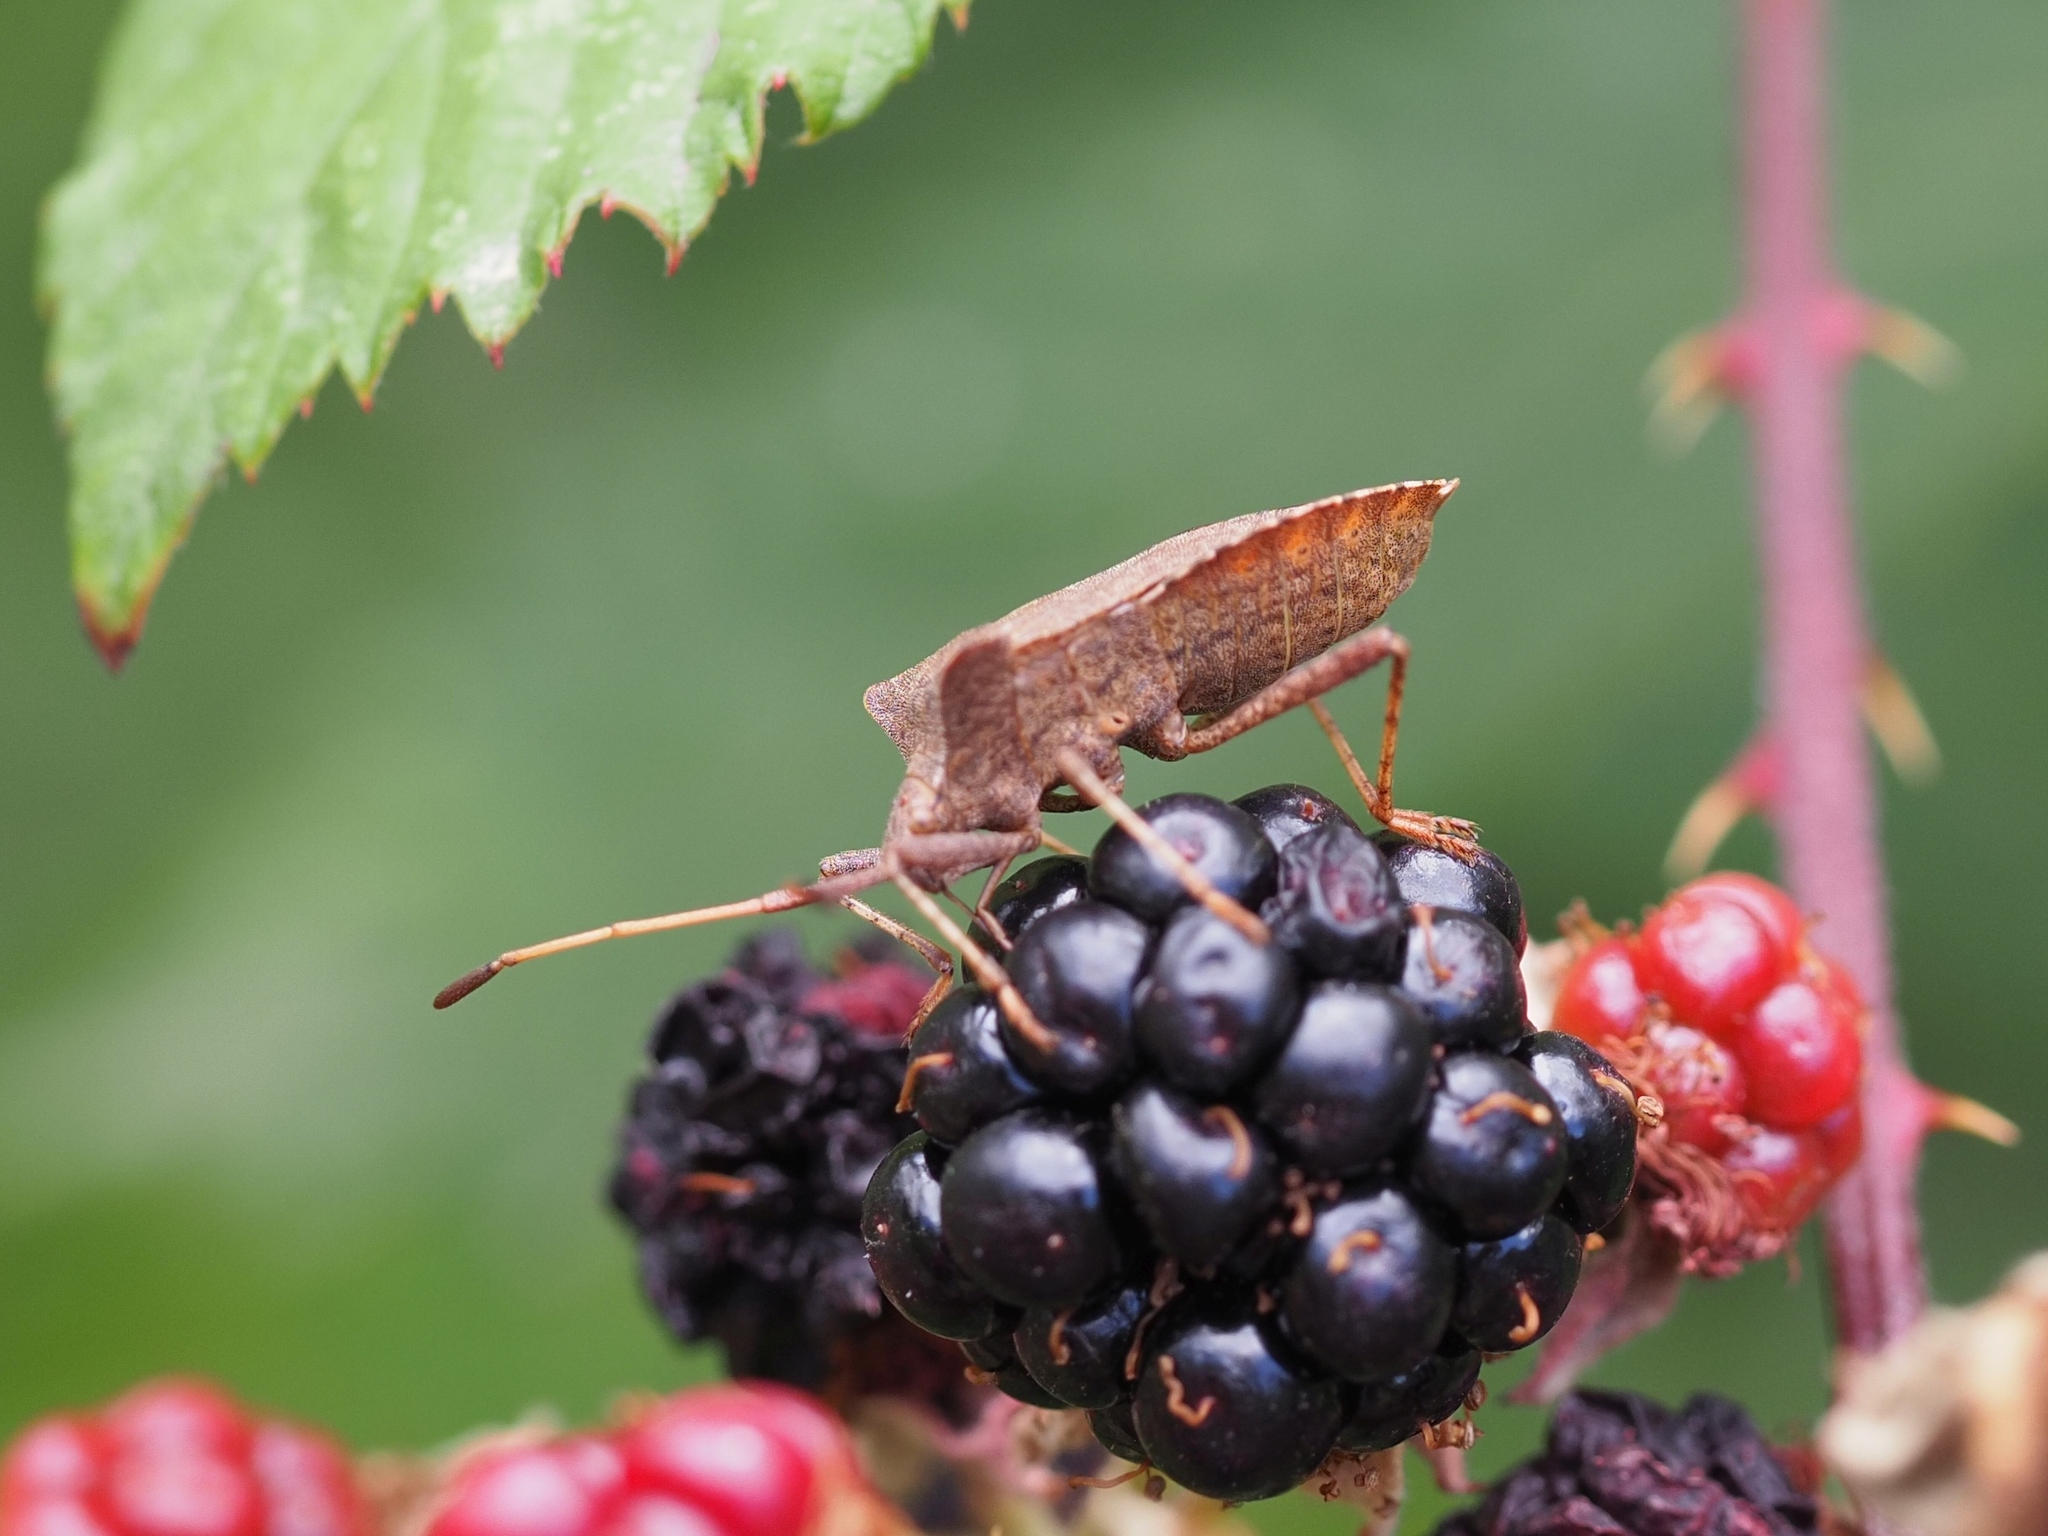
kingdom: Animalia
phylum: Arthropoda
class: Insecta
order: Hemiptera
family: Coreidae
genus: Coreus
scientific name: Coreus marginatus
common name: Dock bug
